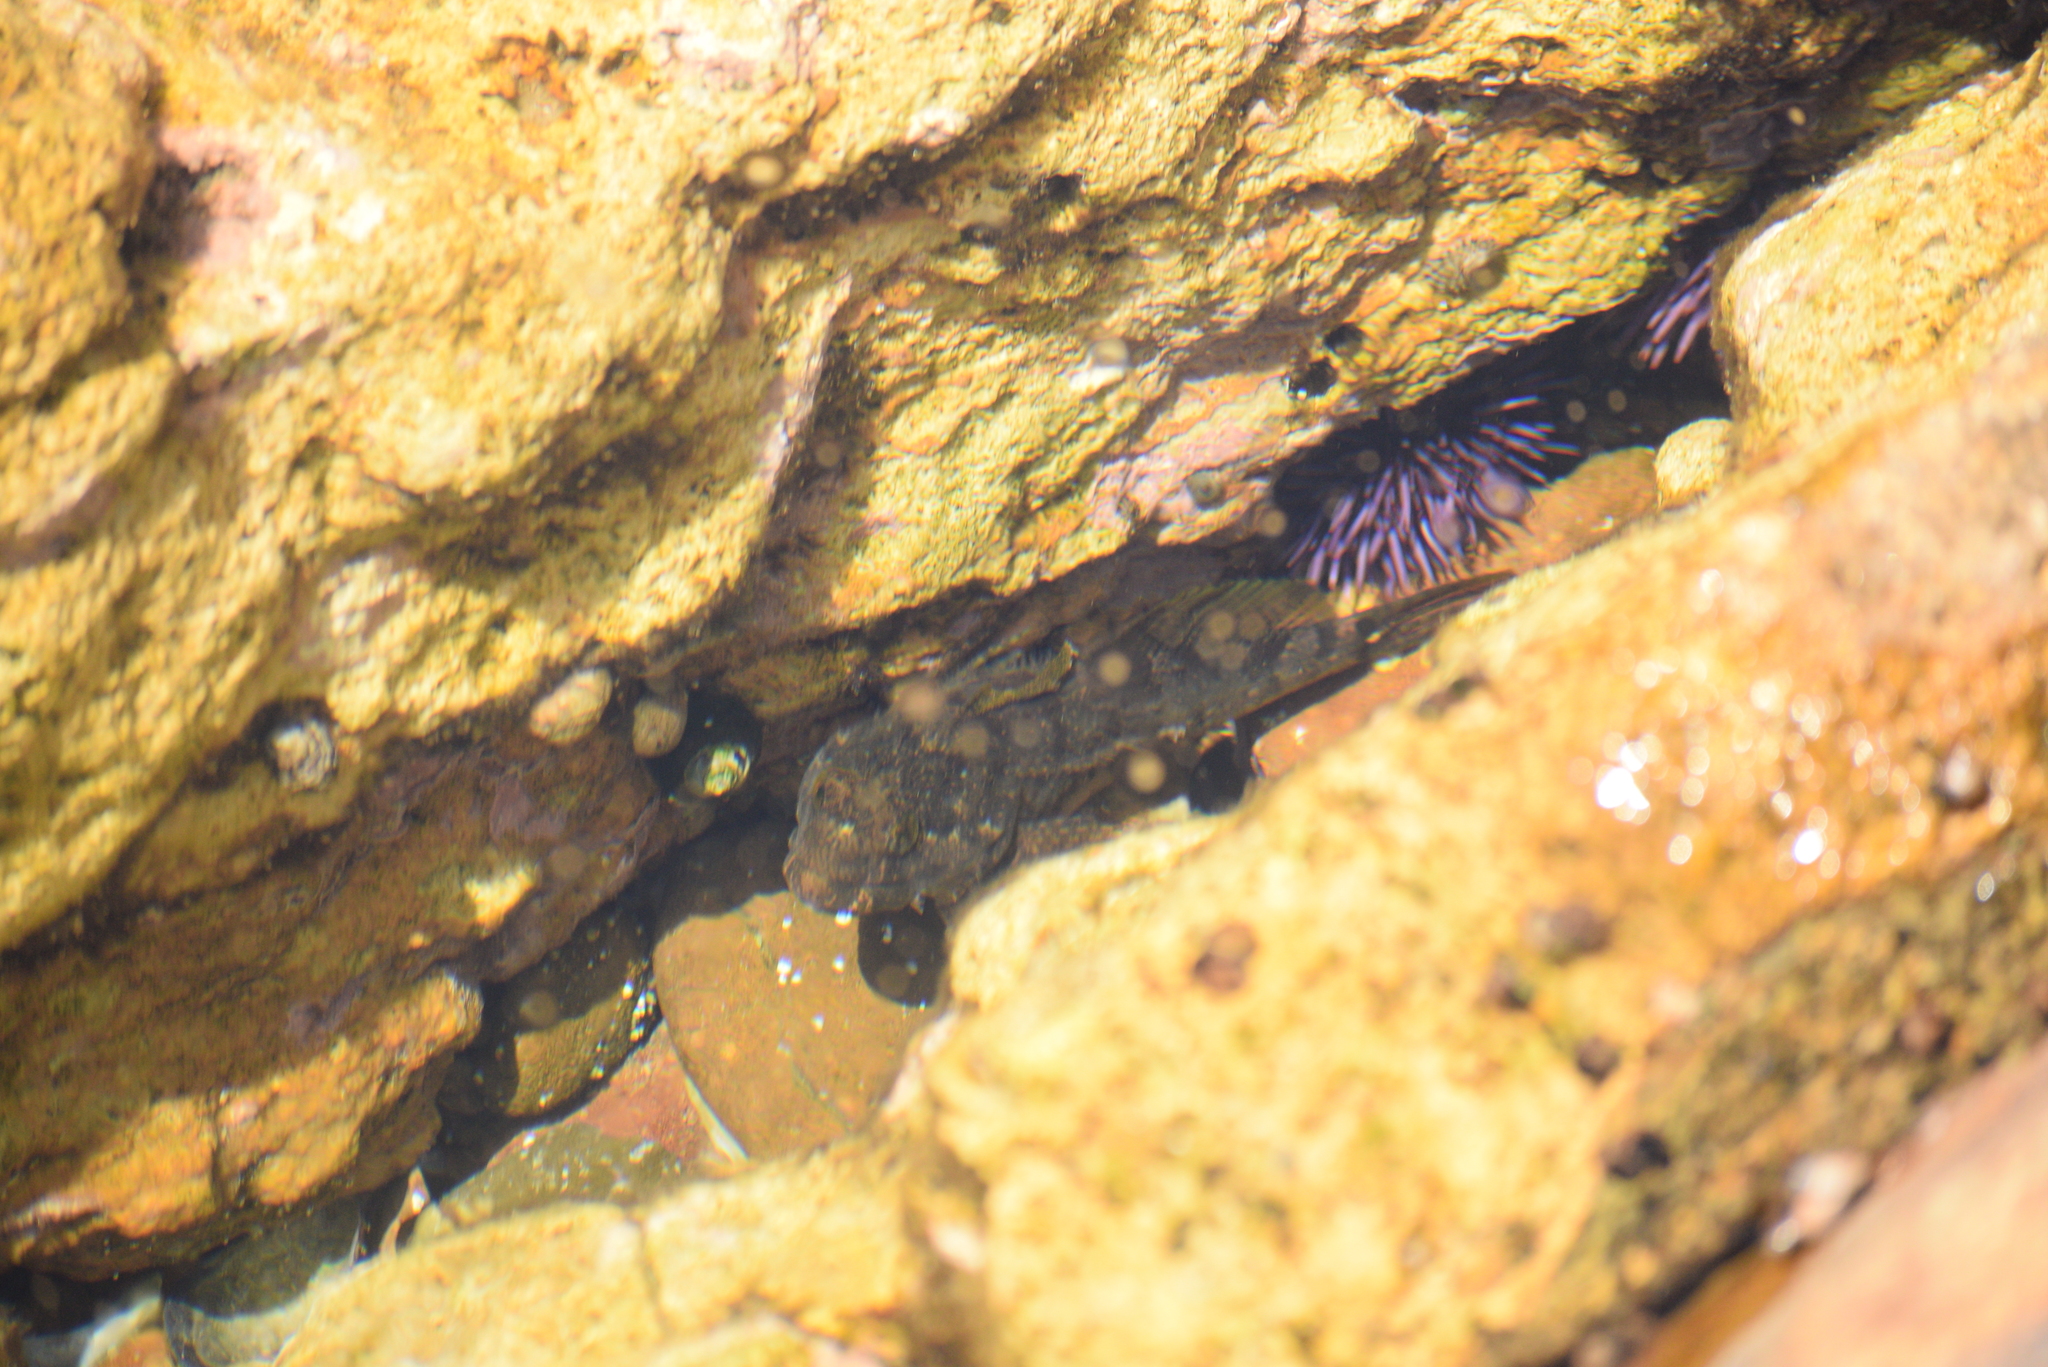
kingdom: Animalia
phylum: Chordata
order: Scorpaeniformes
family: Cottidae
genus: Clinocottus
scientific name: Clinocottus analis
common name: Woolly sculpin
